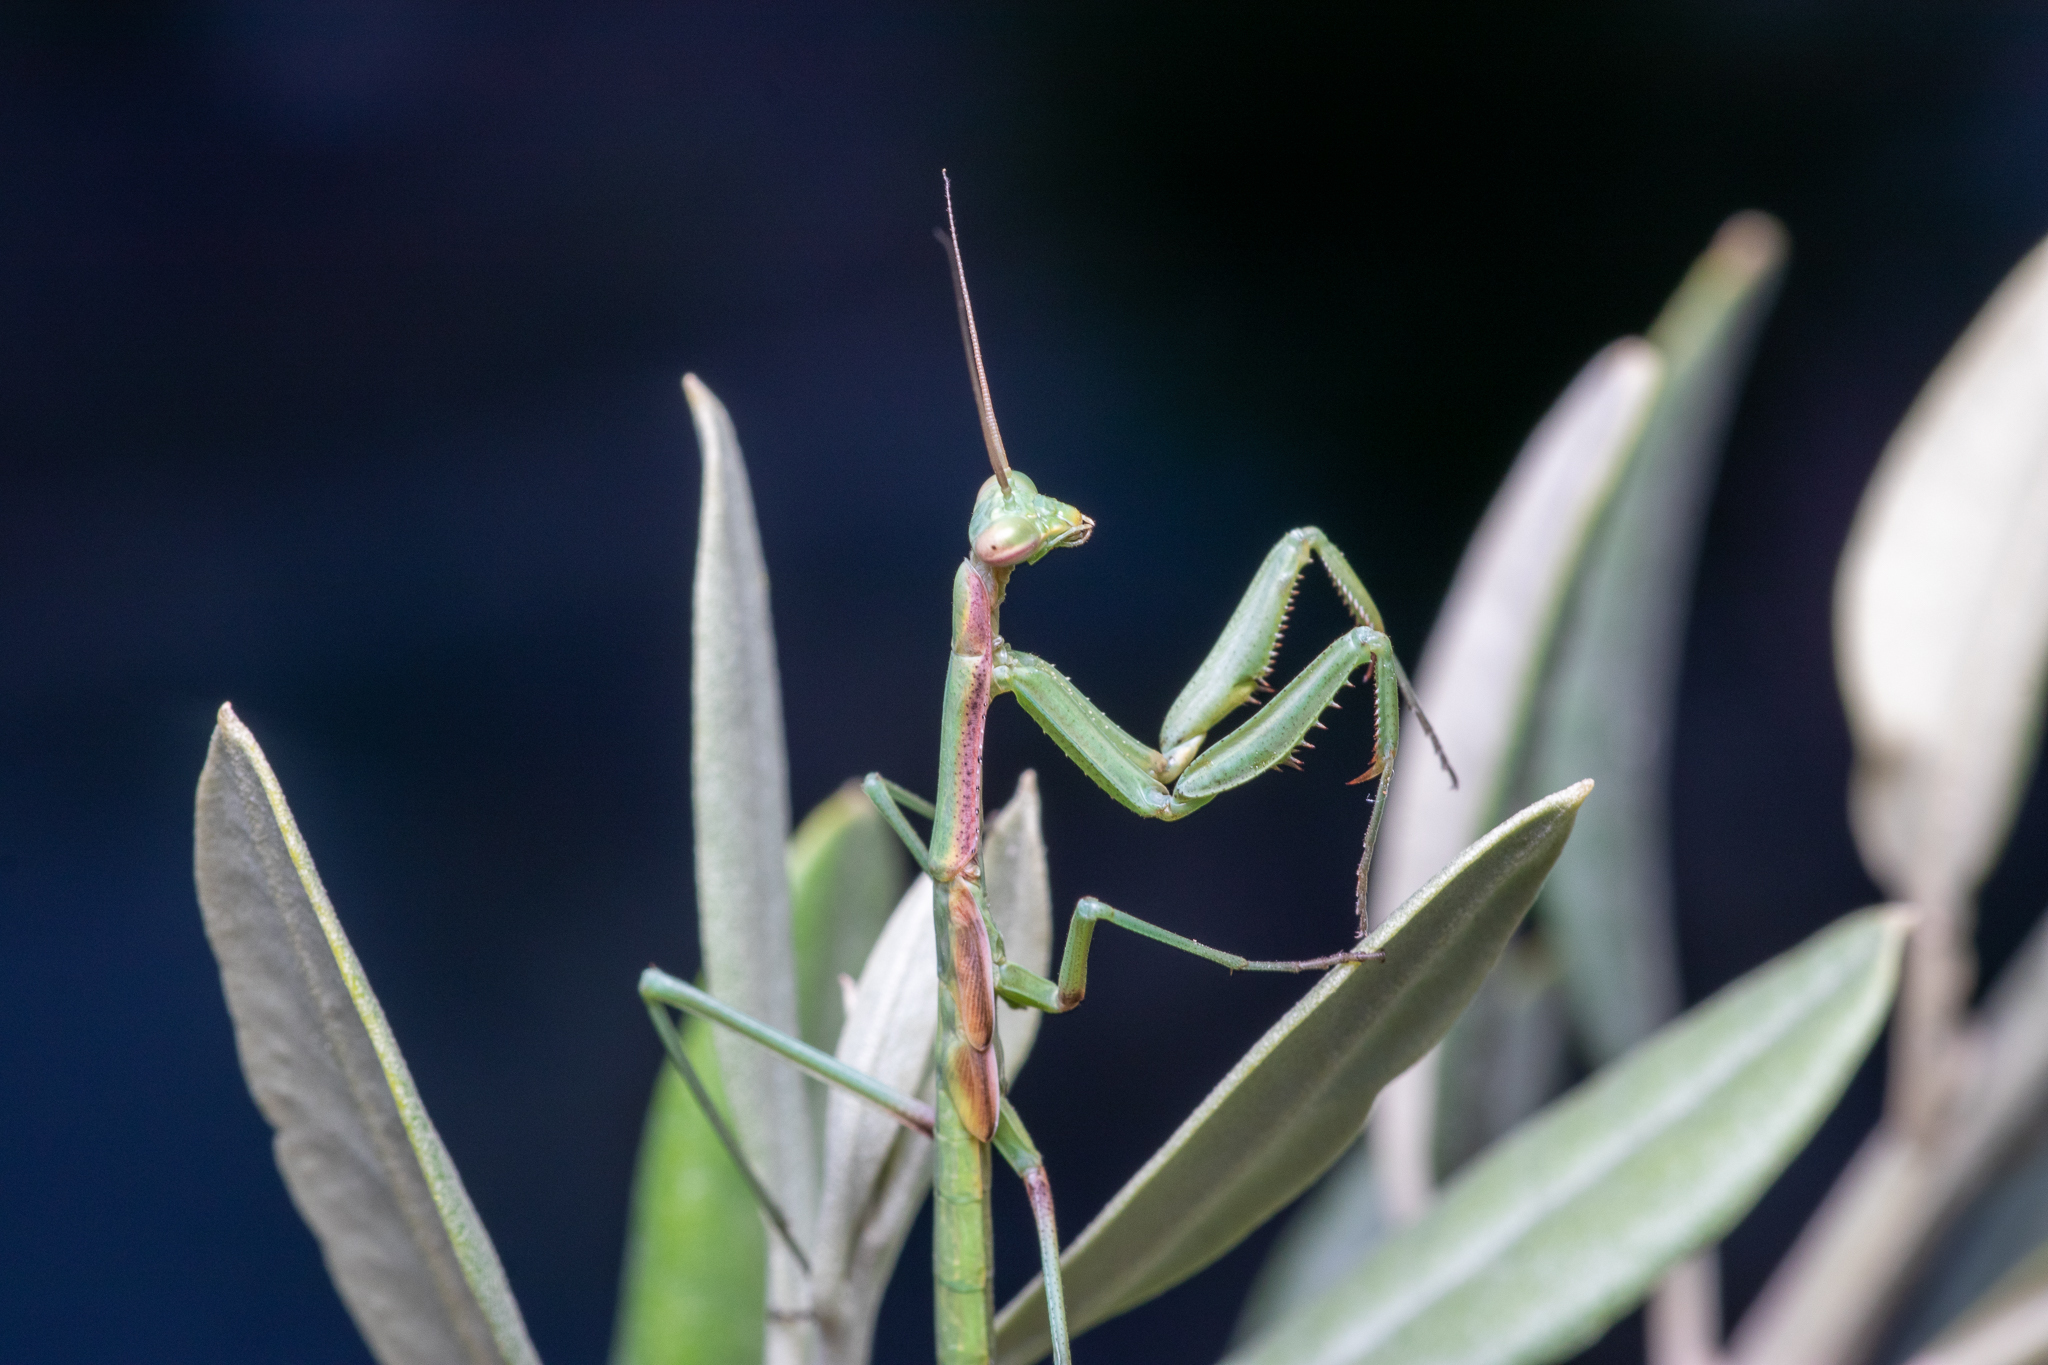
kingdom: Animalia
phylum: Arthropoda
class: Insecta
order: Mantodea
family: Coptopterygidae
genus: Coptopteryx
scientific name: Coptopteryx gayi
